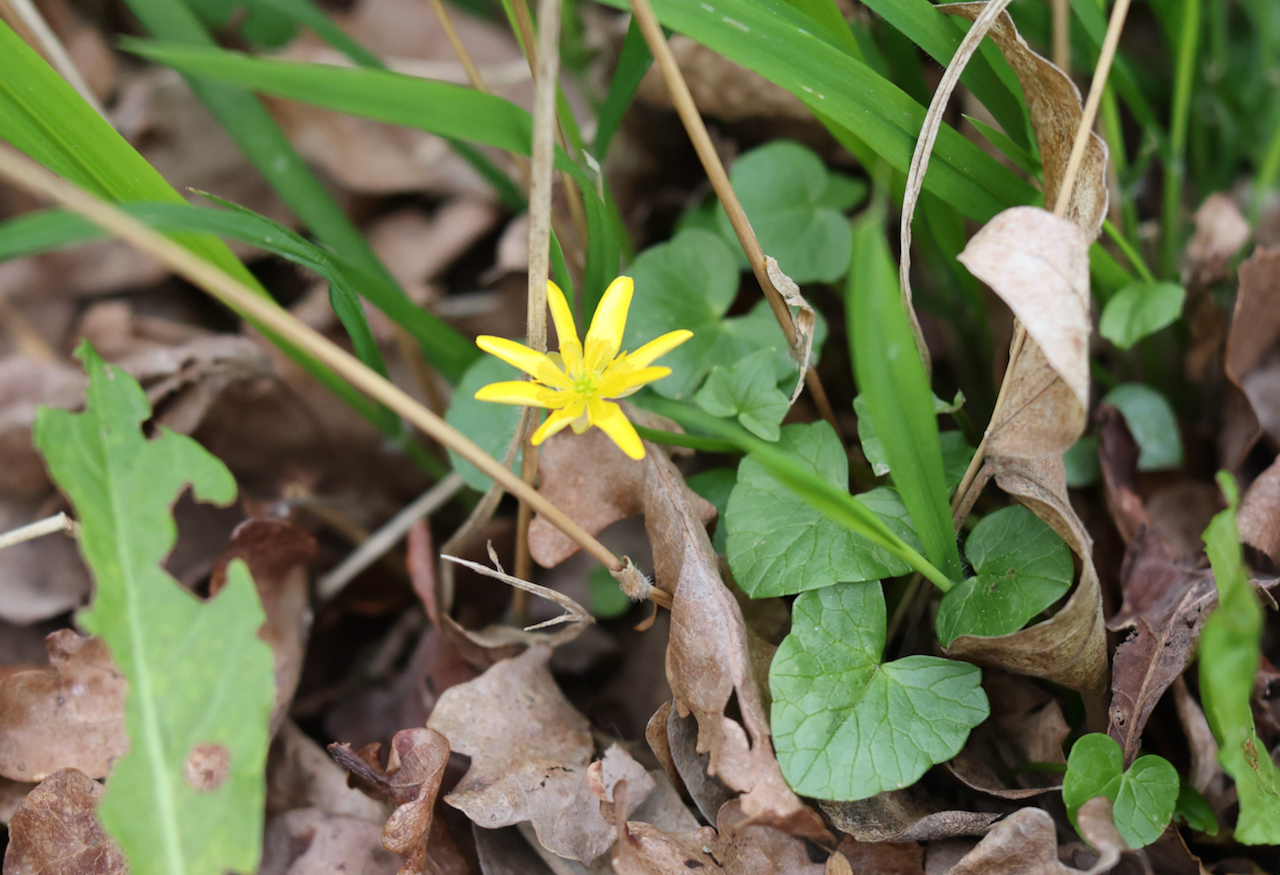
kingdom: Plantae
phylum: Tracheophyta
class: Magnoliopsida
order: Ranunculales
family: Ranunculaceae
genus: Ficaria
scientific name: Ficaria verna
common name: Lesser celandine
